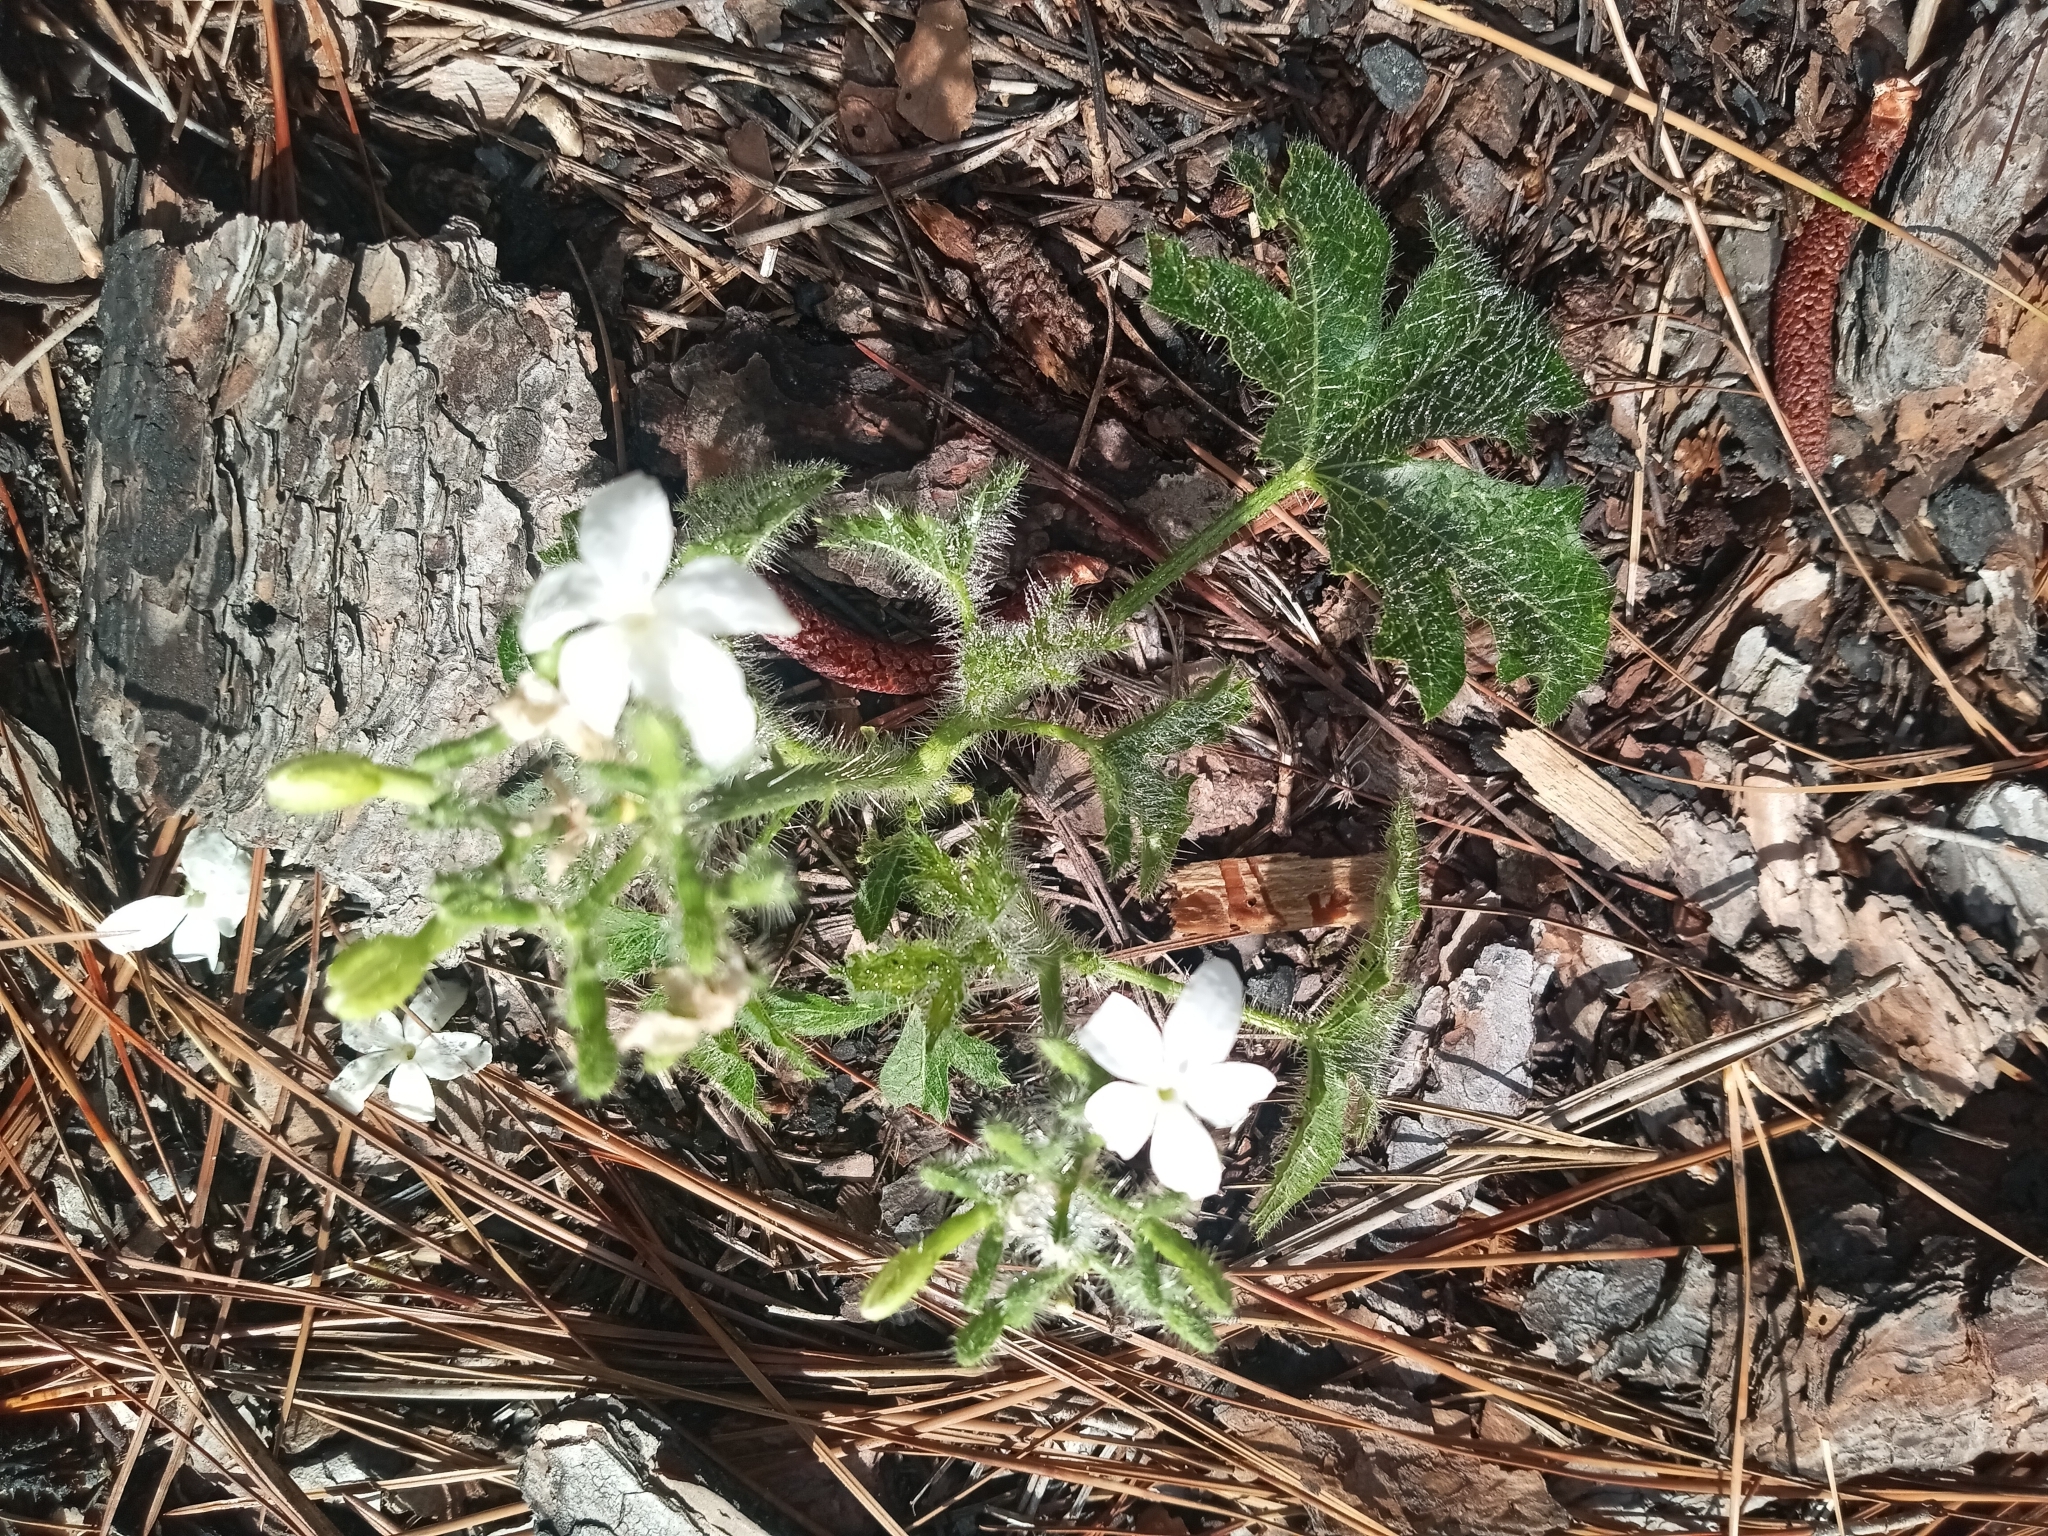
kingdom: Plantae
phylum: Tracheophyta
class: Magnoliopsida
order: Malpighiales
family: Euphorbiaceae
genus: Cnidoscolus
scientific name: Cnidoscolus stimulosus
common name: Bull-nettle
